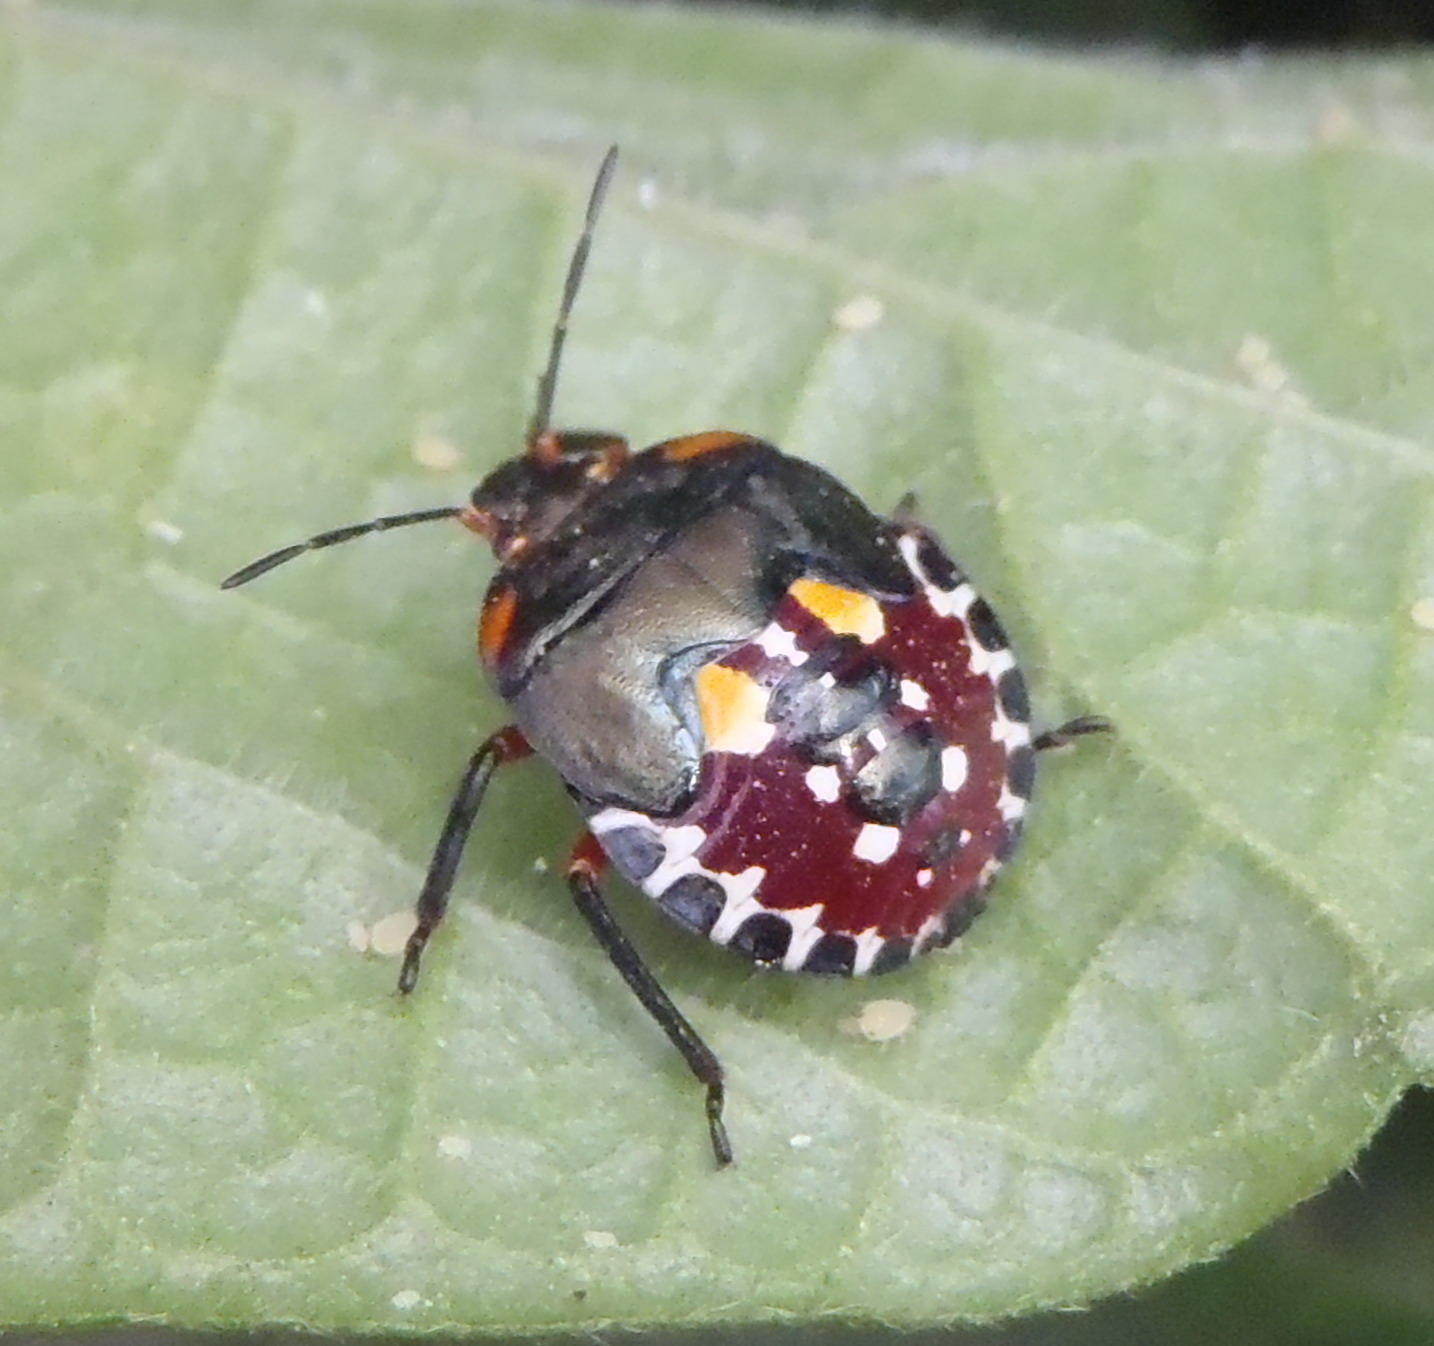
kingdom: Animalia
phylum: Arthropoda
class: Insecta
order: Hemiptera
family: Pentatomidae
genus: Caura
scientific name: Caura rufiventris
